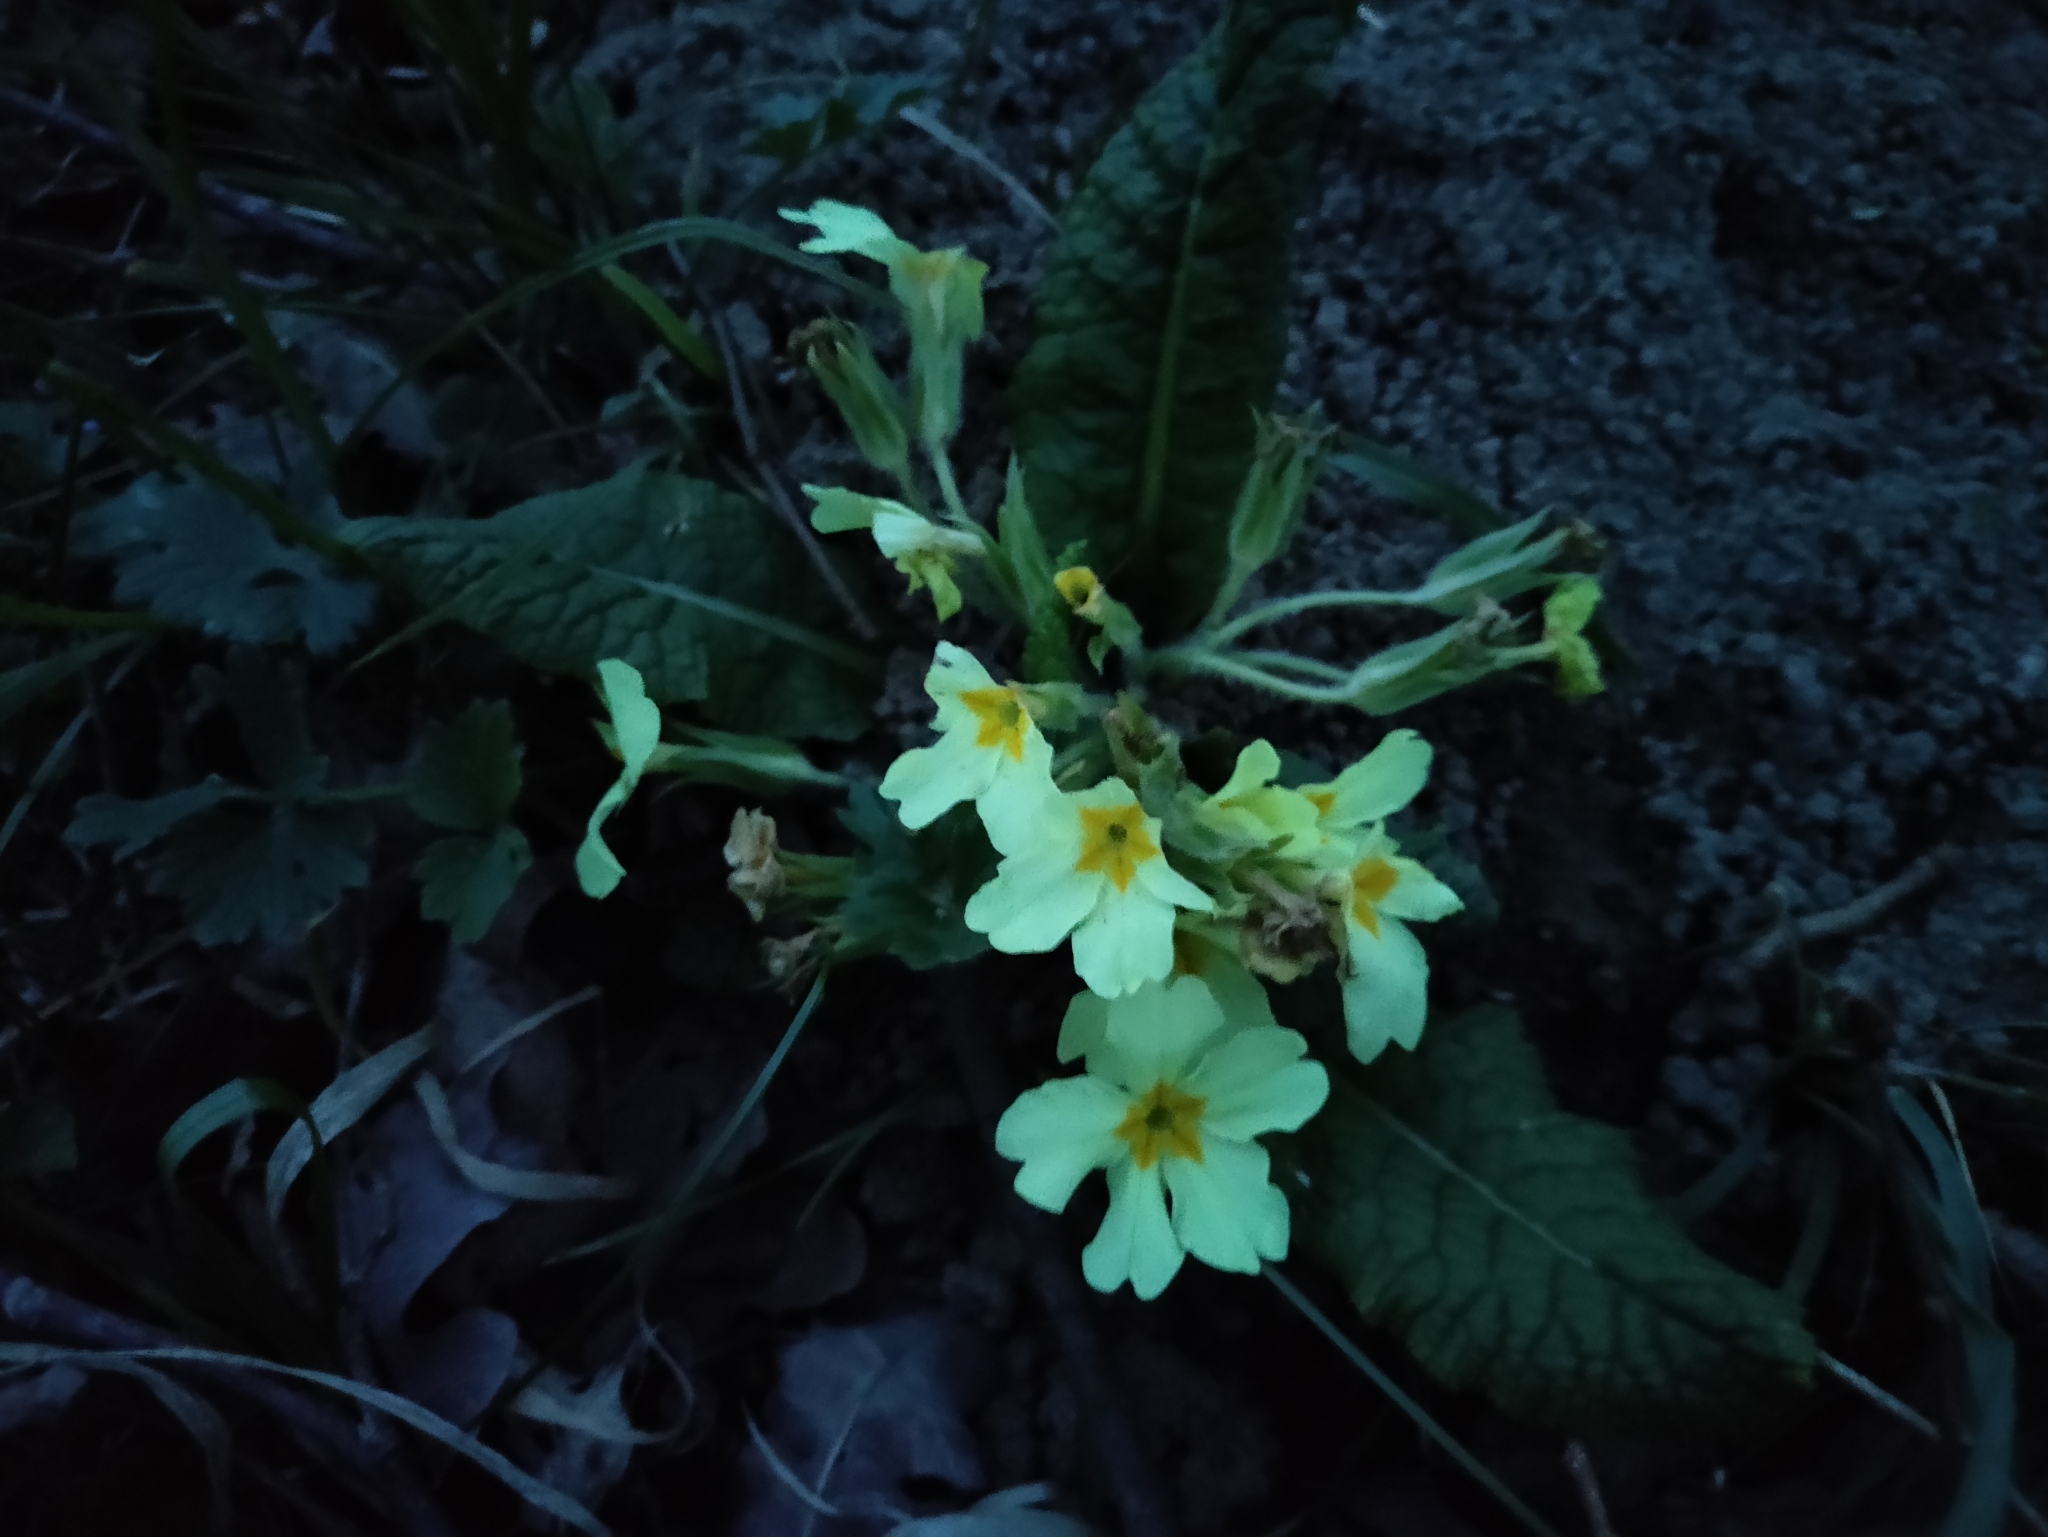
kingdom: Plantae
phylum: Tracheophyta
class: Magnoliopsida
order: Ericales
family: Primulaceae
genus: Primula
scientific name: Primula vulgaris
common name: Primrose
